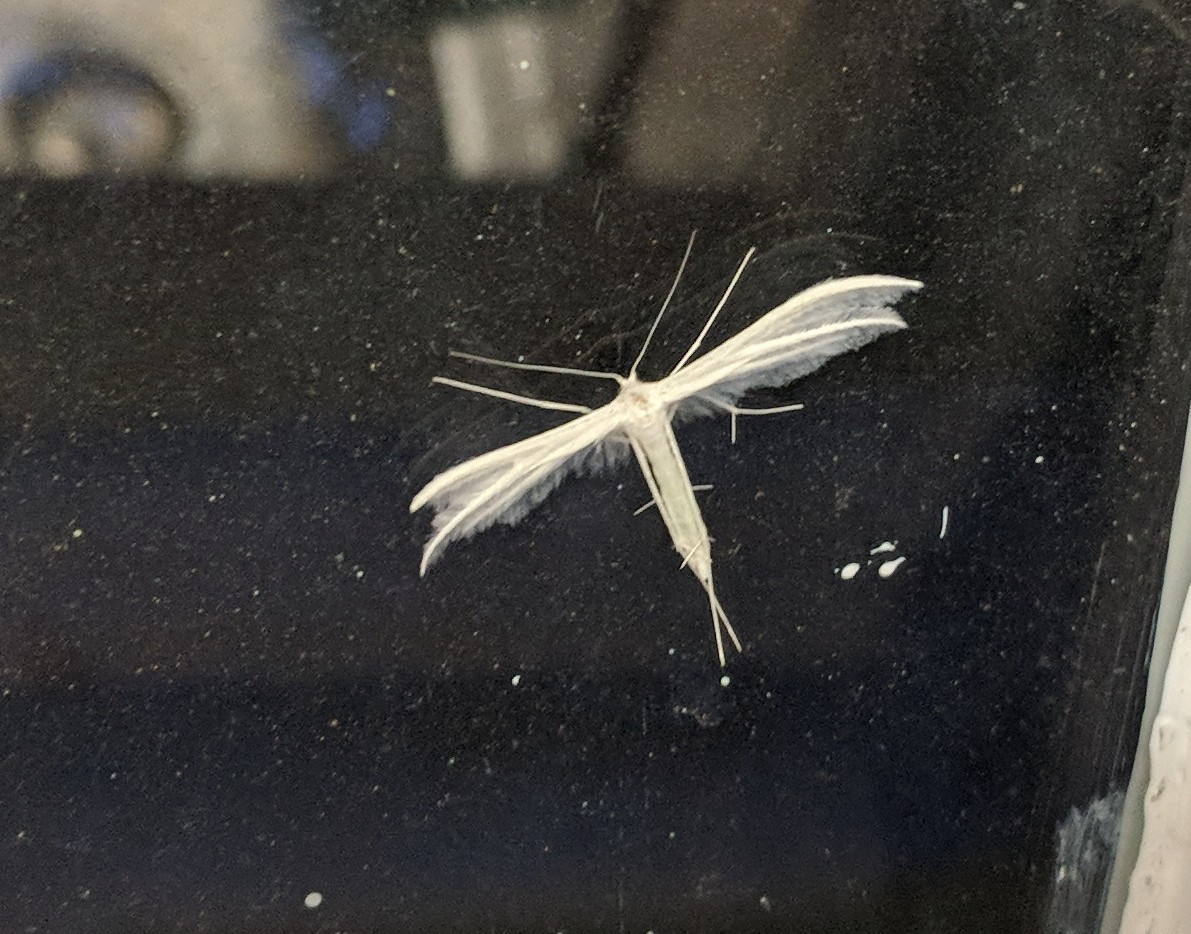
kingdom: Animalia
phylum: Arthropoda
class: Insecta
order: Lepidoptera
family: Pterophoridae
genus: Pterophorus
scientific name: Pterophorus pentadactyla
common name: White plume moth
